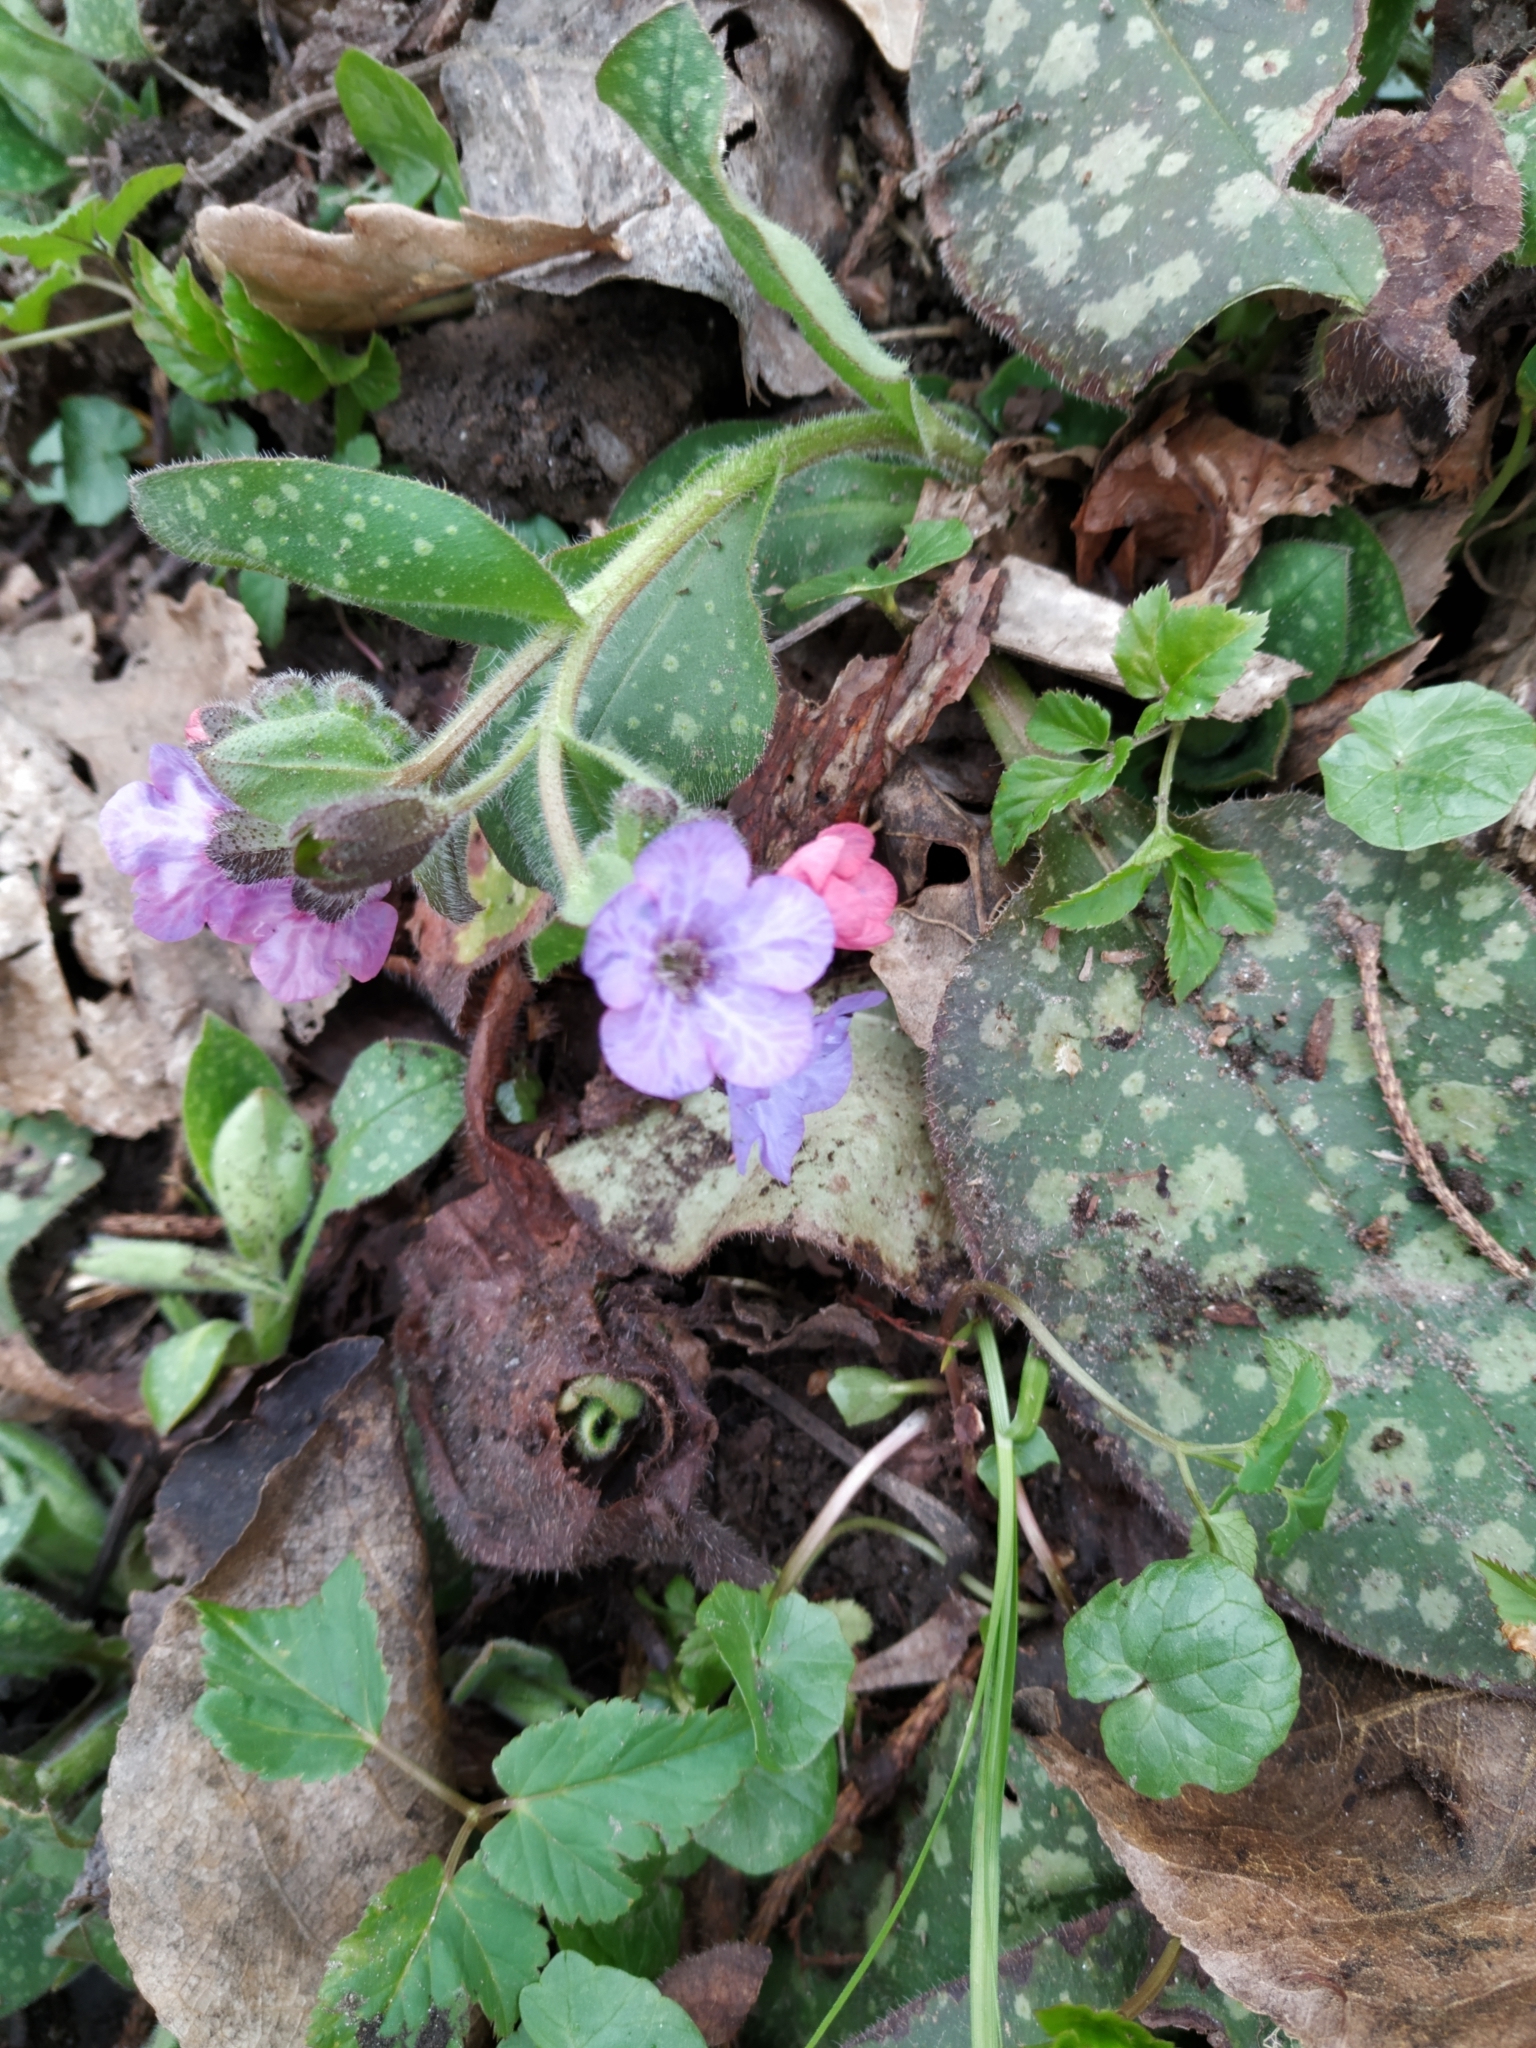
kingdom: Plantae
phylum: Tracheophyta
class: Magnoliopsida
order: Boraginales
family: Boraginaceae
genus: Pulmonaria
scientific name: Pulmonaria officinalis
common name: Lungwort
